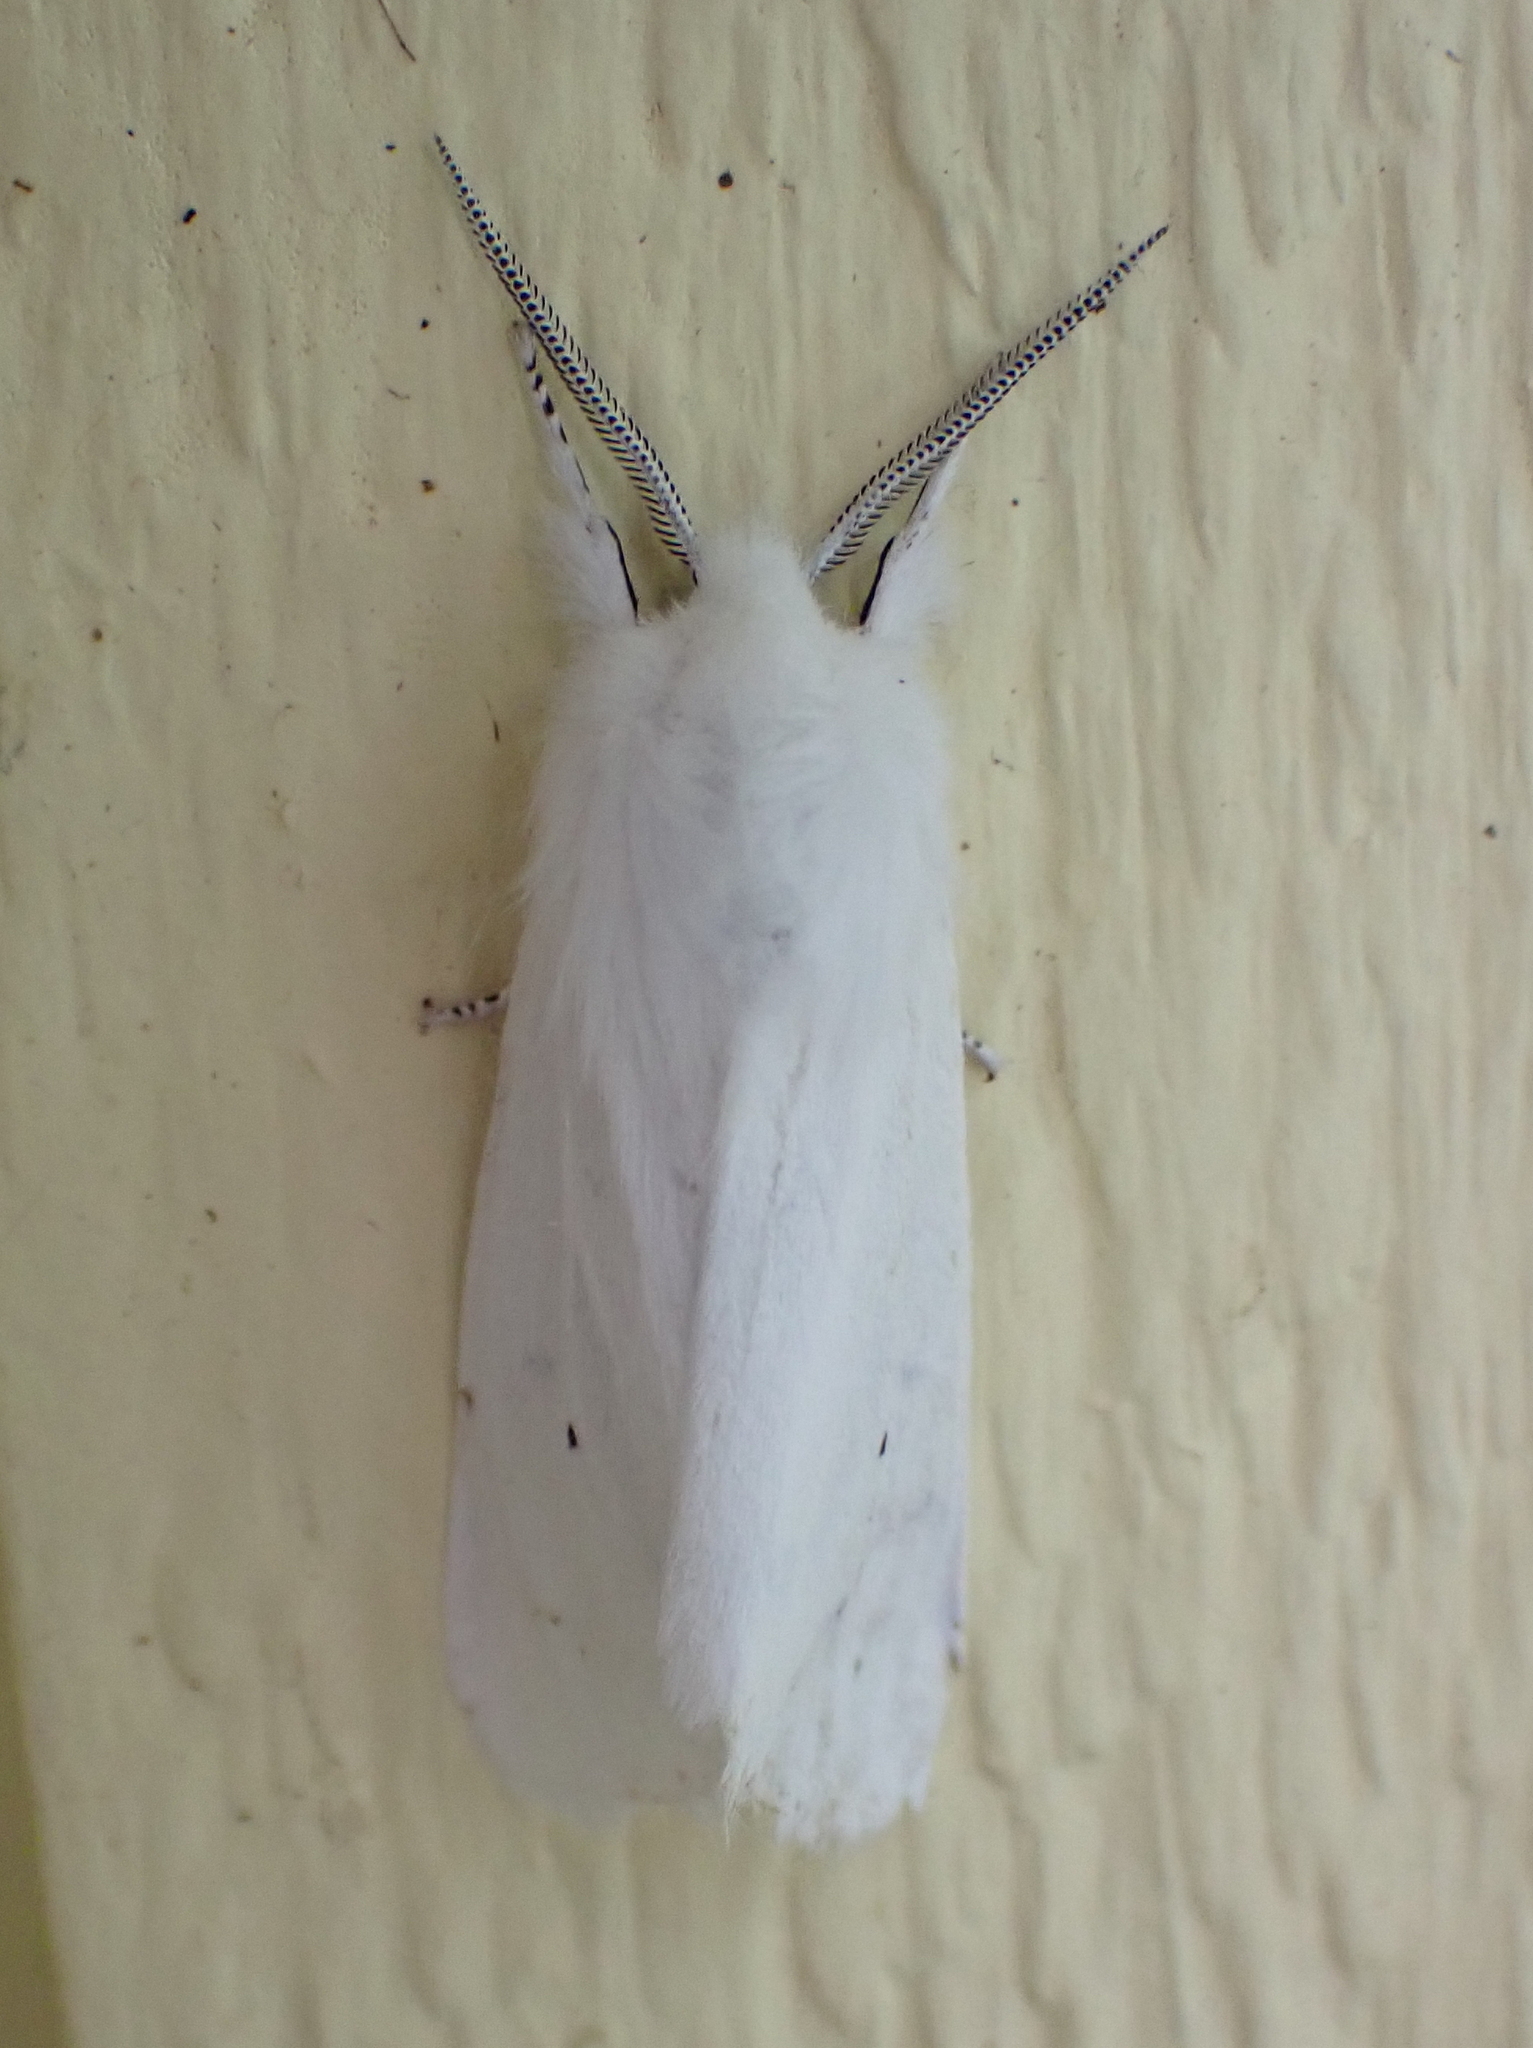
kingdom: Animalia
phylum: Arthropoda
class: Insecta
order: Lepidoptera
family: Erebidae
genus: Spilosoma
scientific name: Spilosoma virginica
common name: Virginia tiger moth
